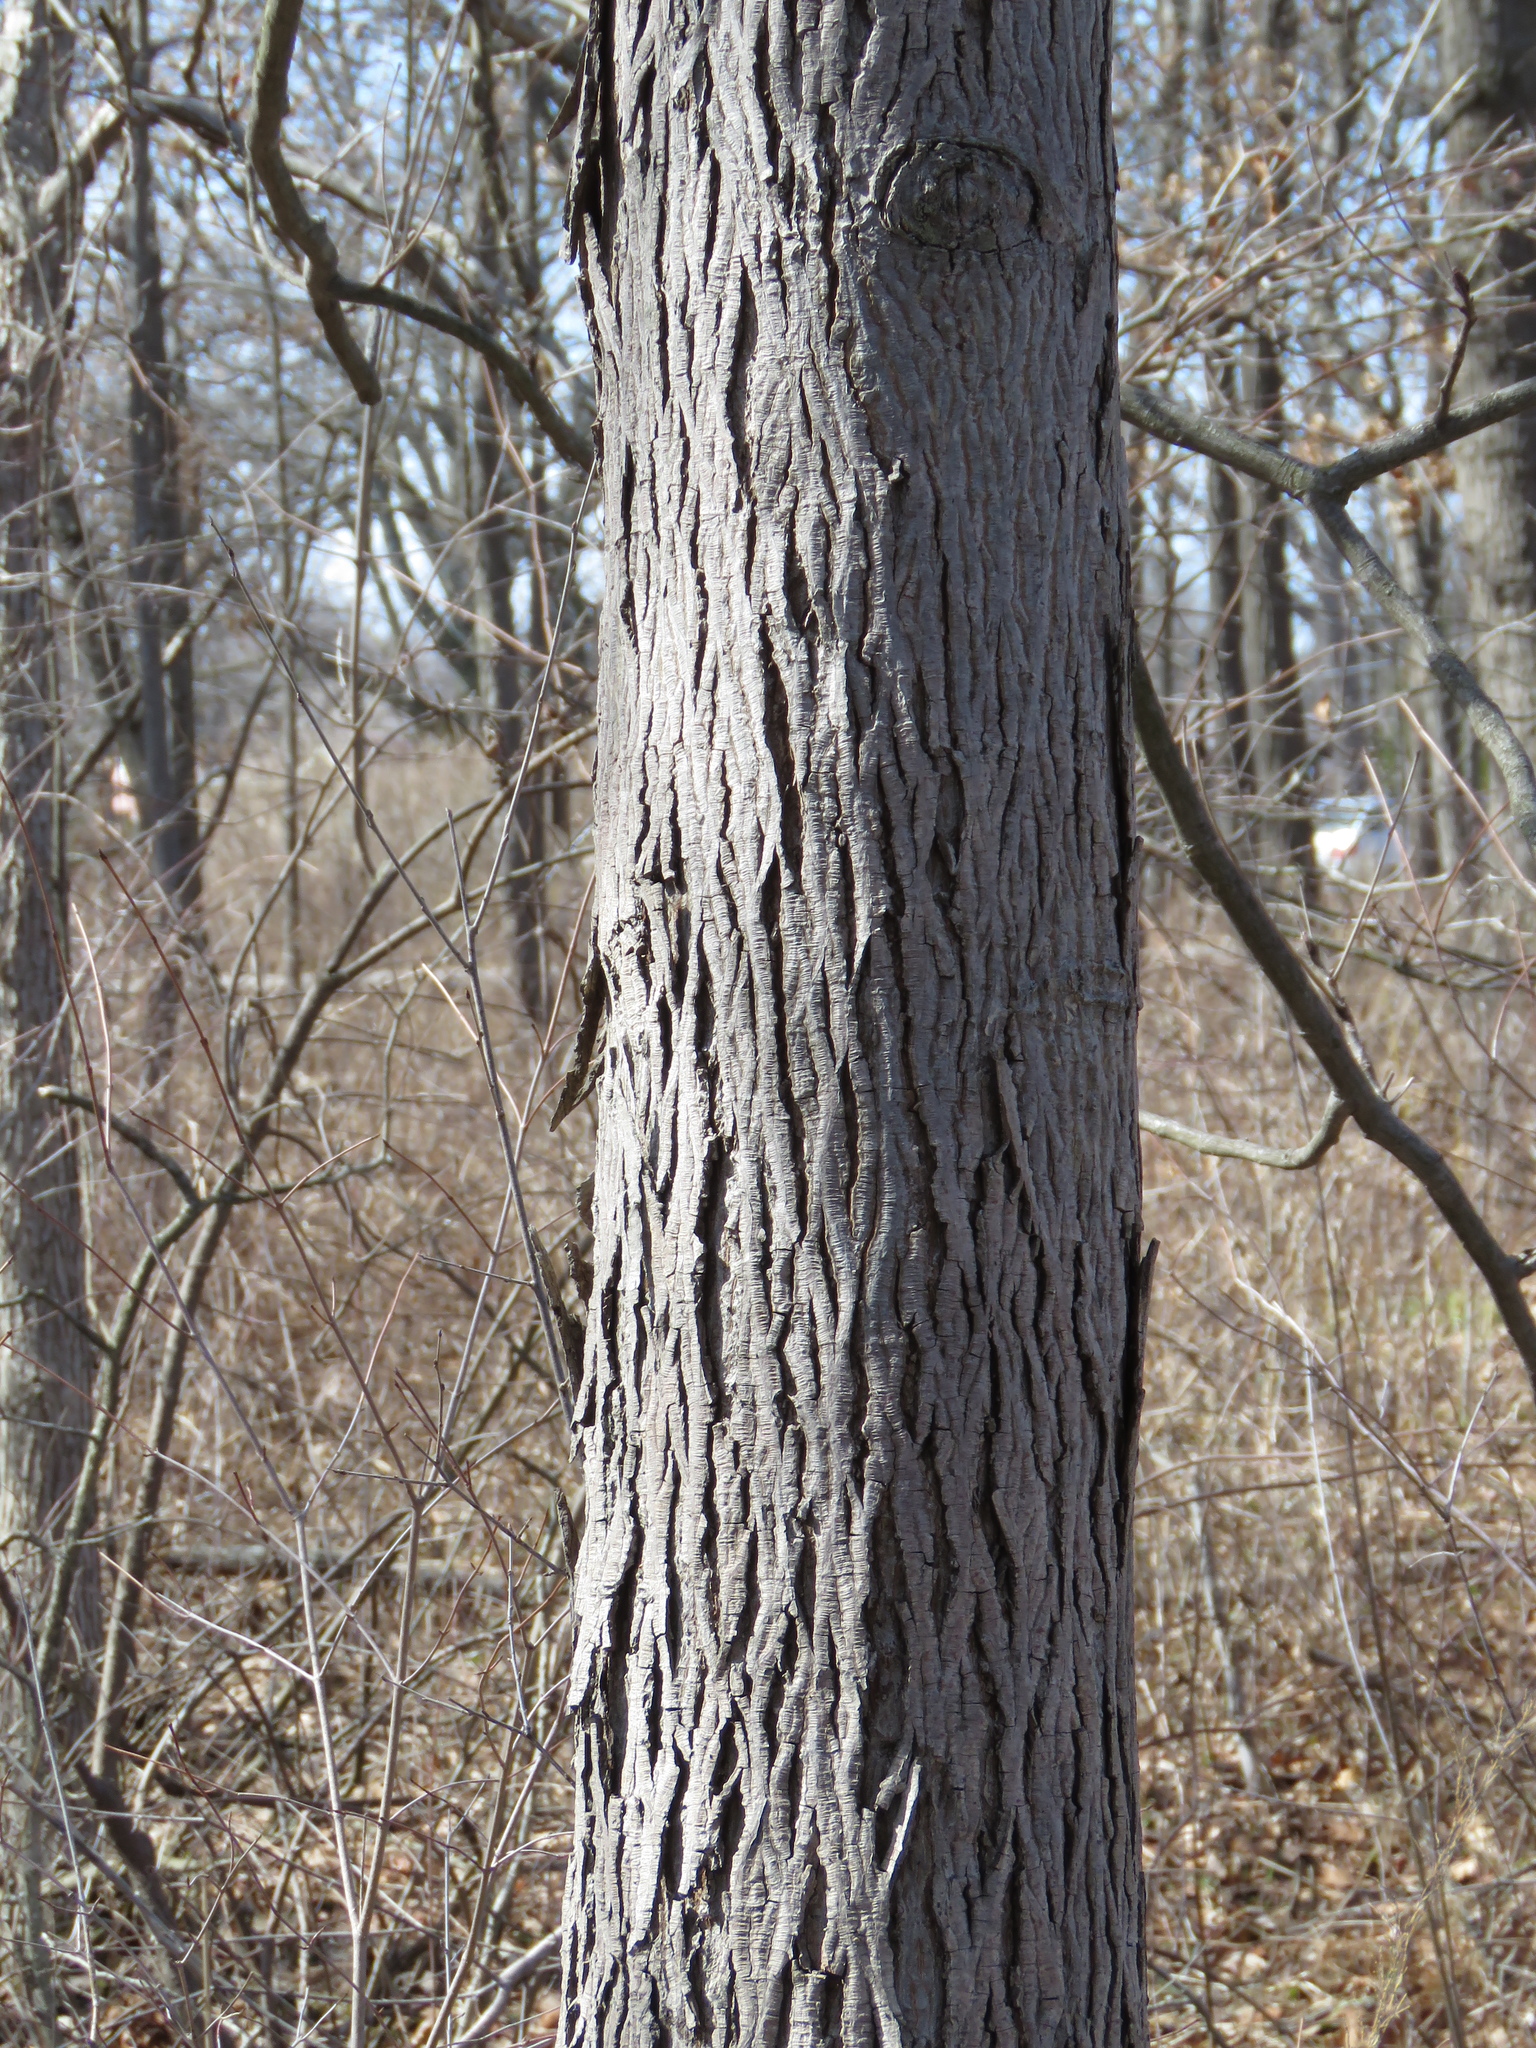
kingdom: Plantae
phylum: Tracheophyta
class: Magnoliopsida
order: Fagales
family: Juglandaceae
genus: Carya
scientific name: Carya ovata
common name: Shagbark hickory
